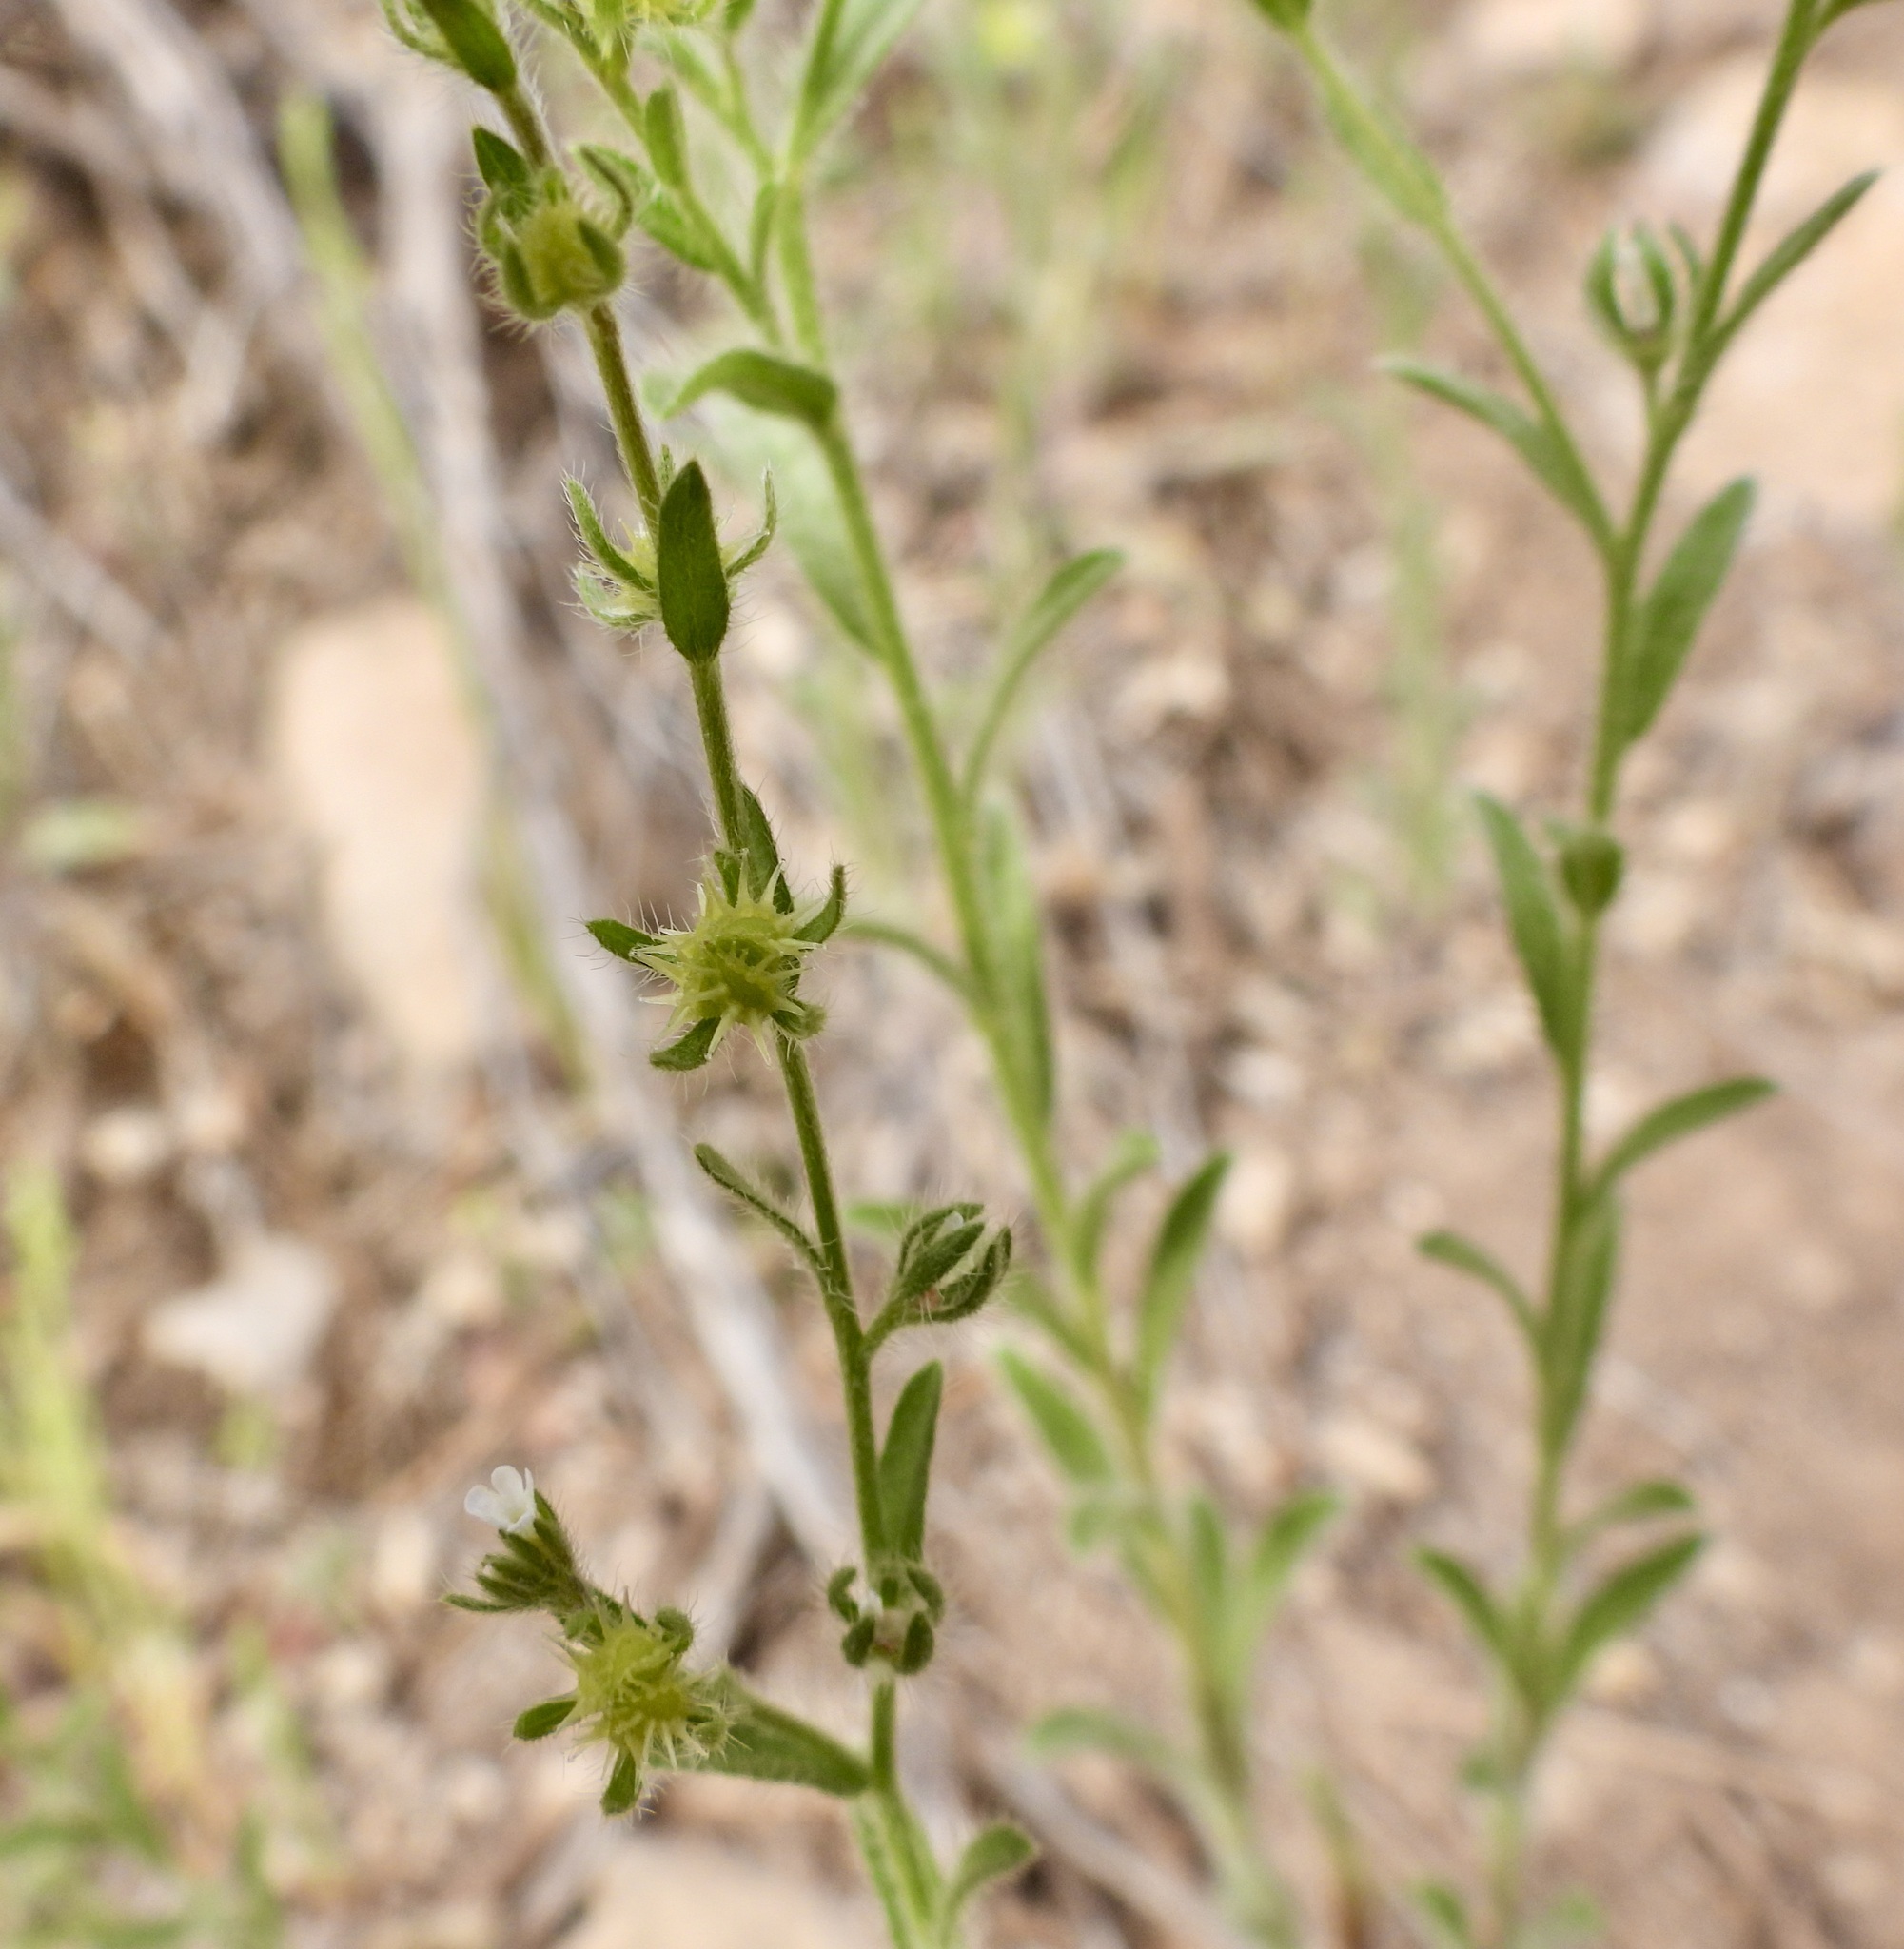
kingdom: Plantae
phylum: Tracheophyta
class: Magnoliopsida
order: Boraginales
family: Boraginaceae
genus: Lappula
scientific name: Lappula occidentalis
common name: Western stickseed
